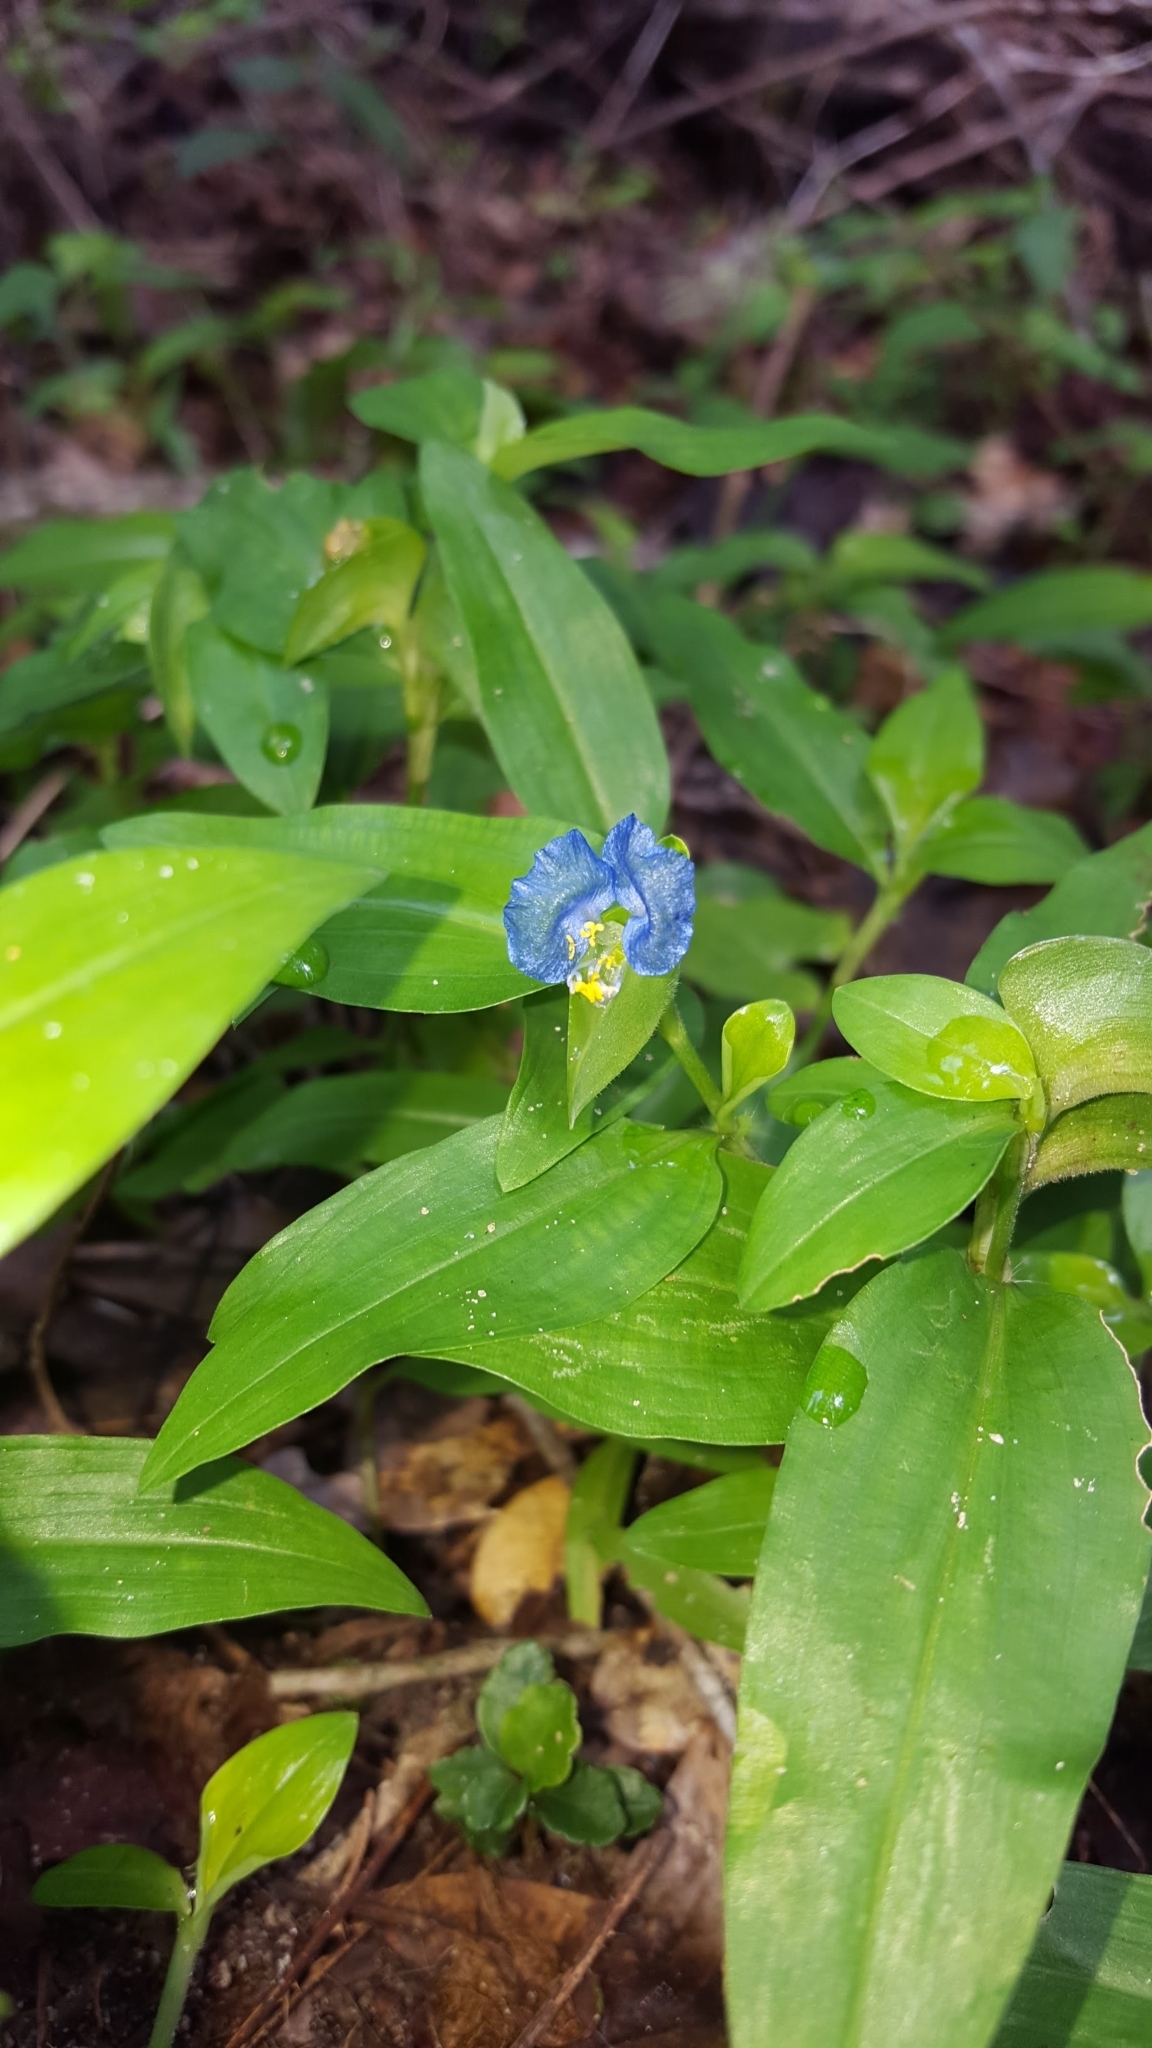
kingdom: Plantae
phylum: Tracheophyta
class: Liliopsida
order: Commelinales
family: Commelinaceae
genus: Commelina
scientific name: Commelina erecta
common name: Blousel blommetjie
